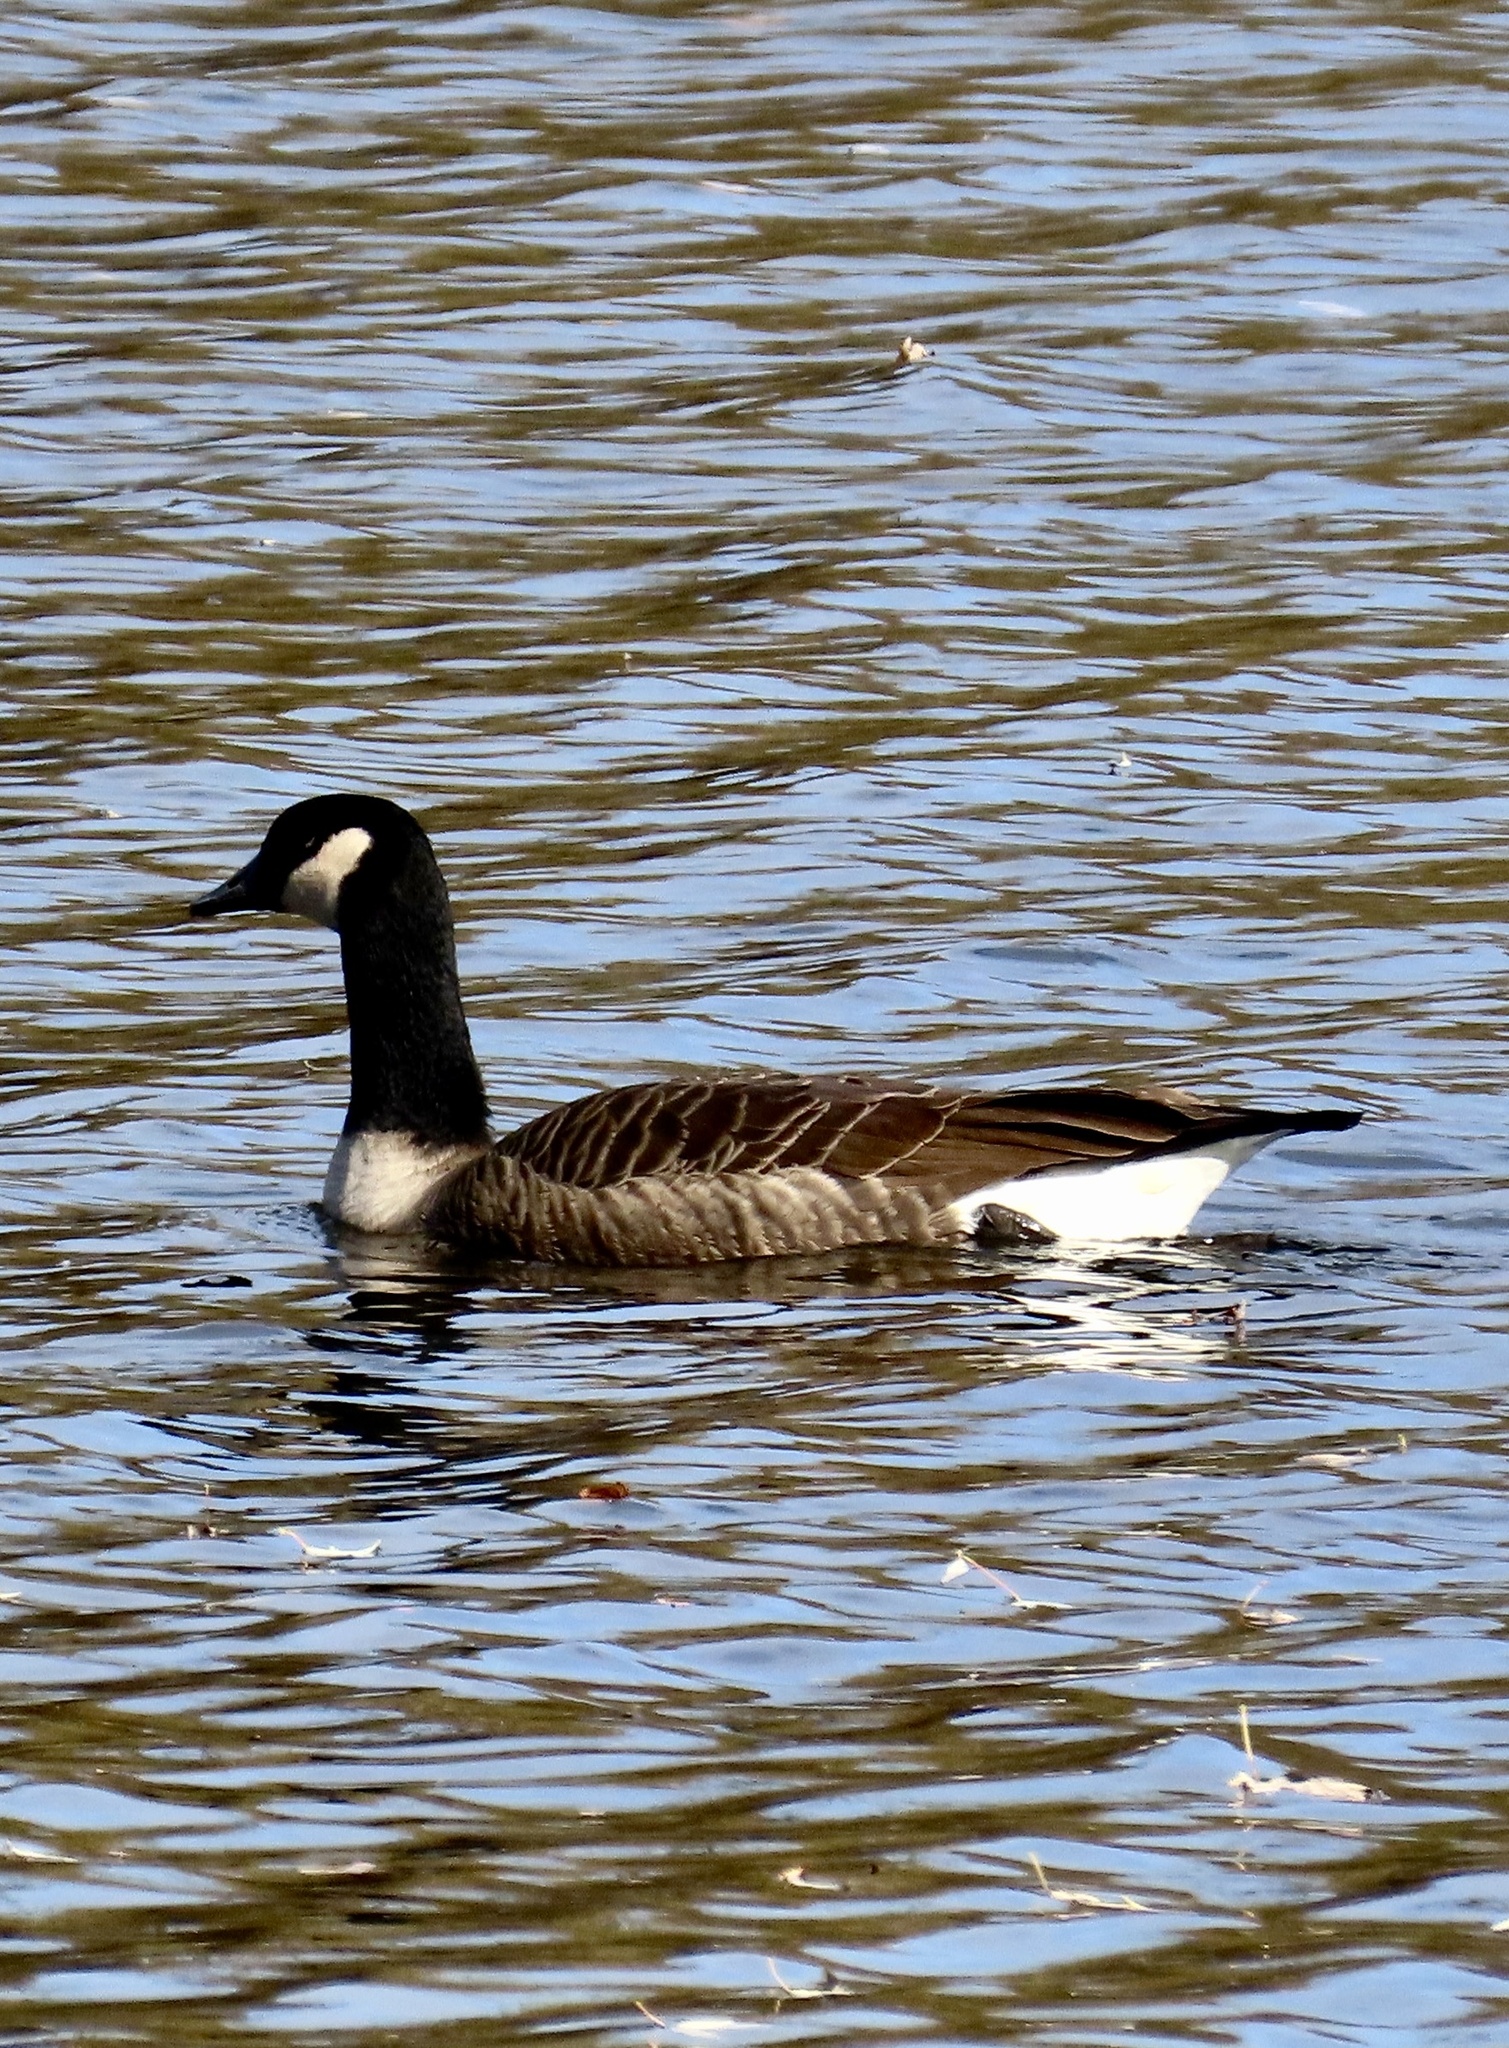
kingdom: Animalia
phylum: Chordata
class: Aves
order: Anseriformes
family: Anatidae
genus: Branta
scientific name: Branta canadensis
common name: Canada goose
